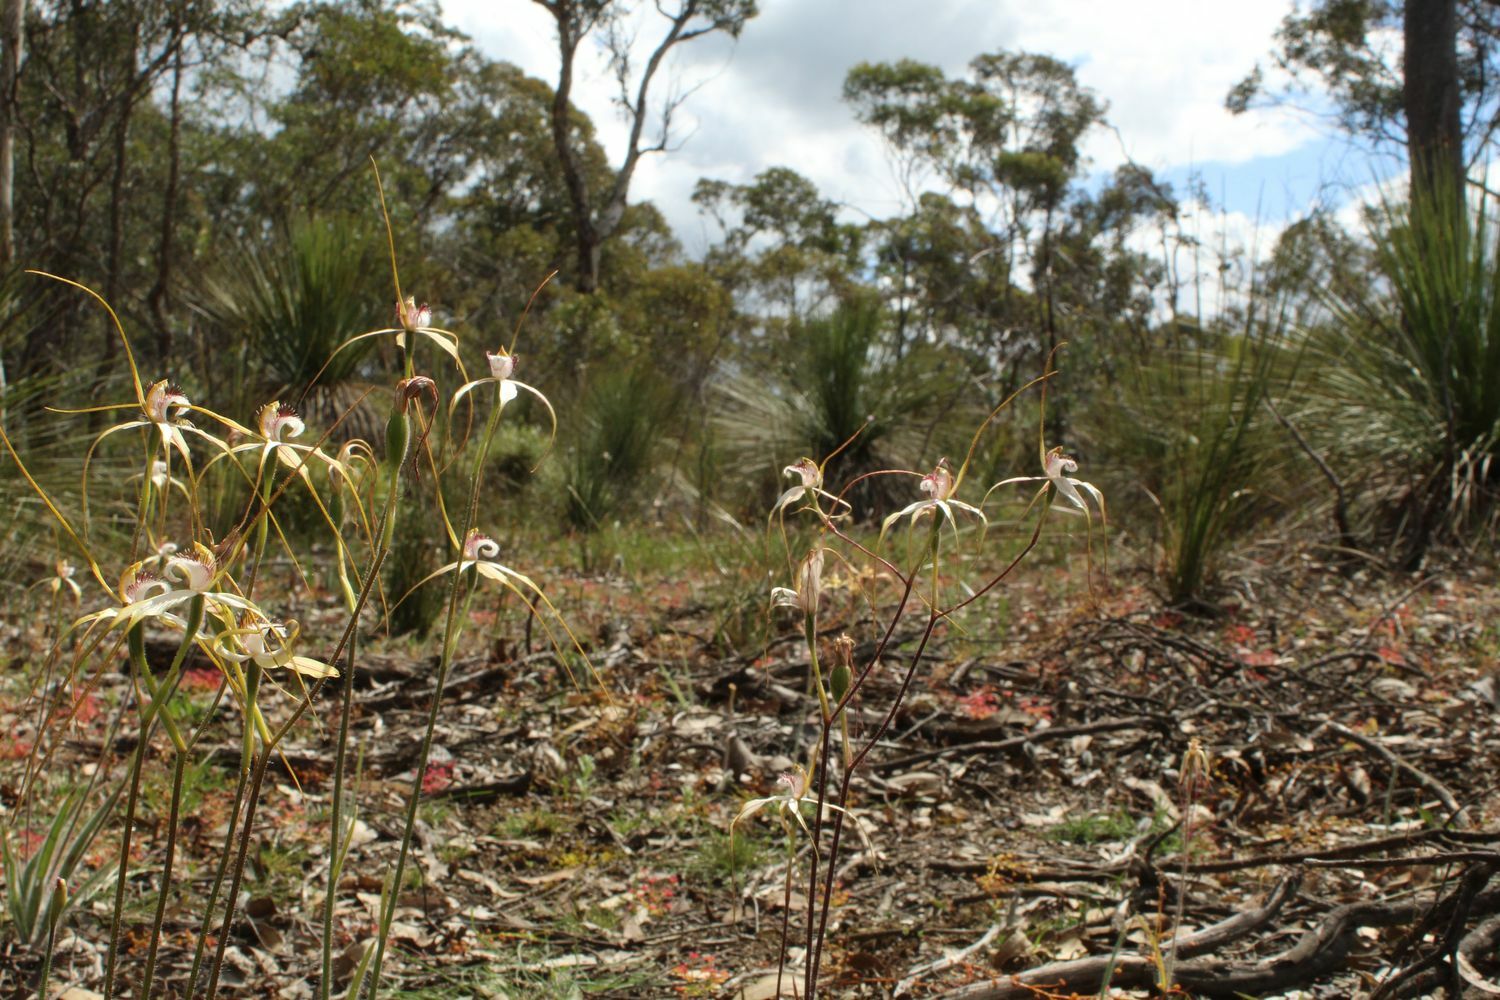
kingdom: Plantae
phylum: Tracheophyta
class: Liliopsida
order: Asparagales
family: Orchidaceae
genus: Caladenia
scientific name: Caladenia longicauda
